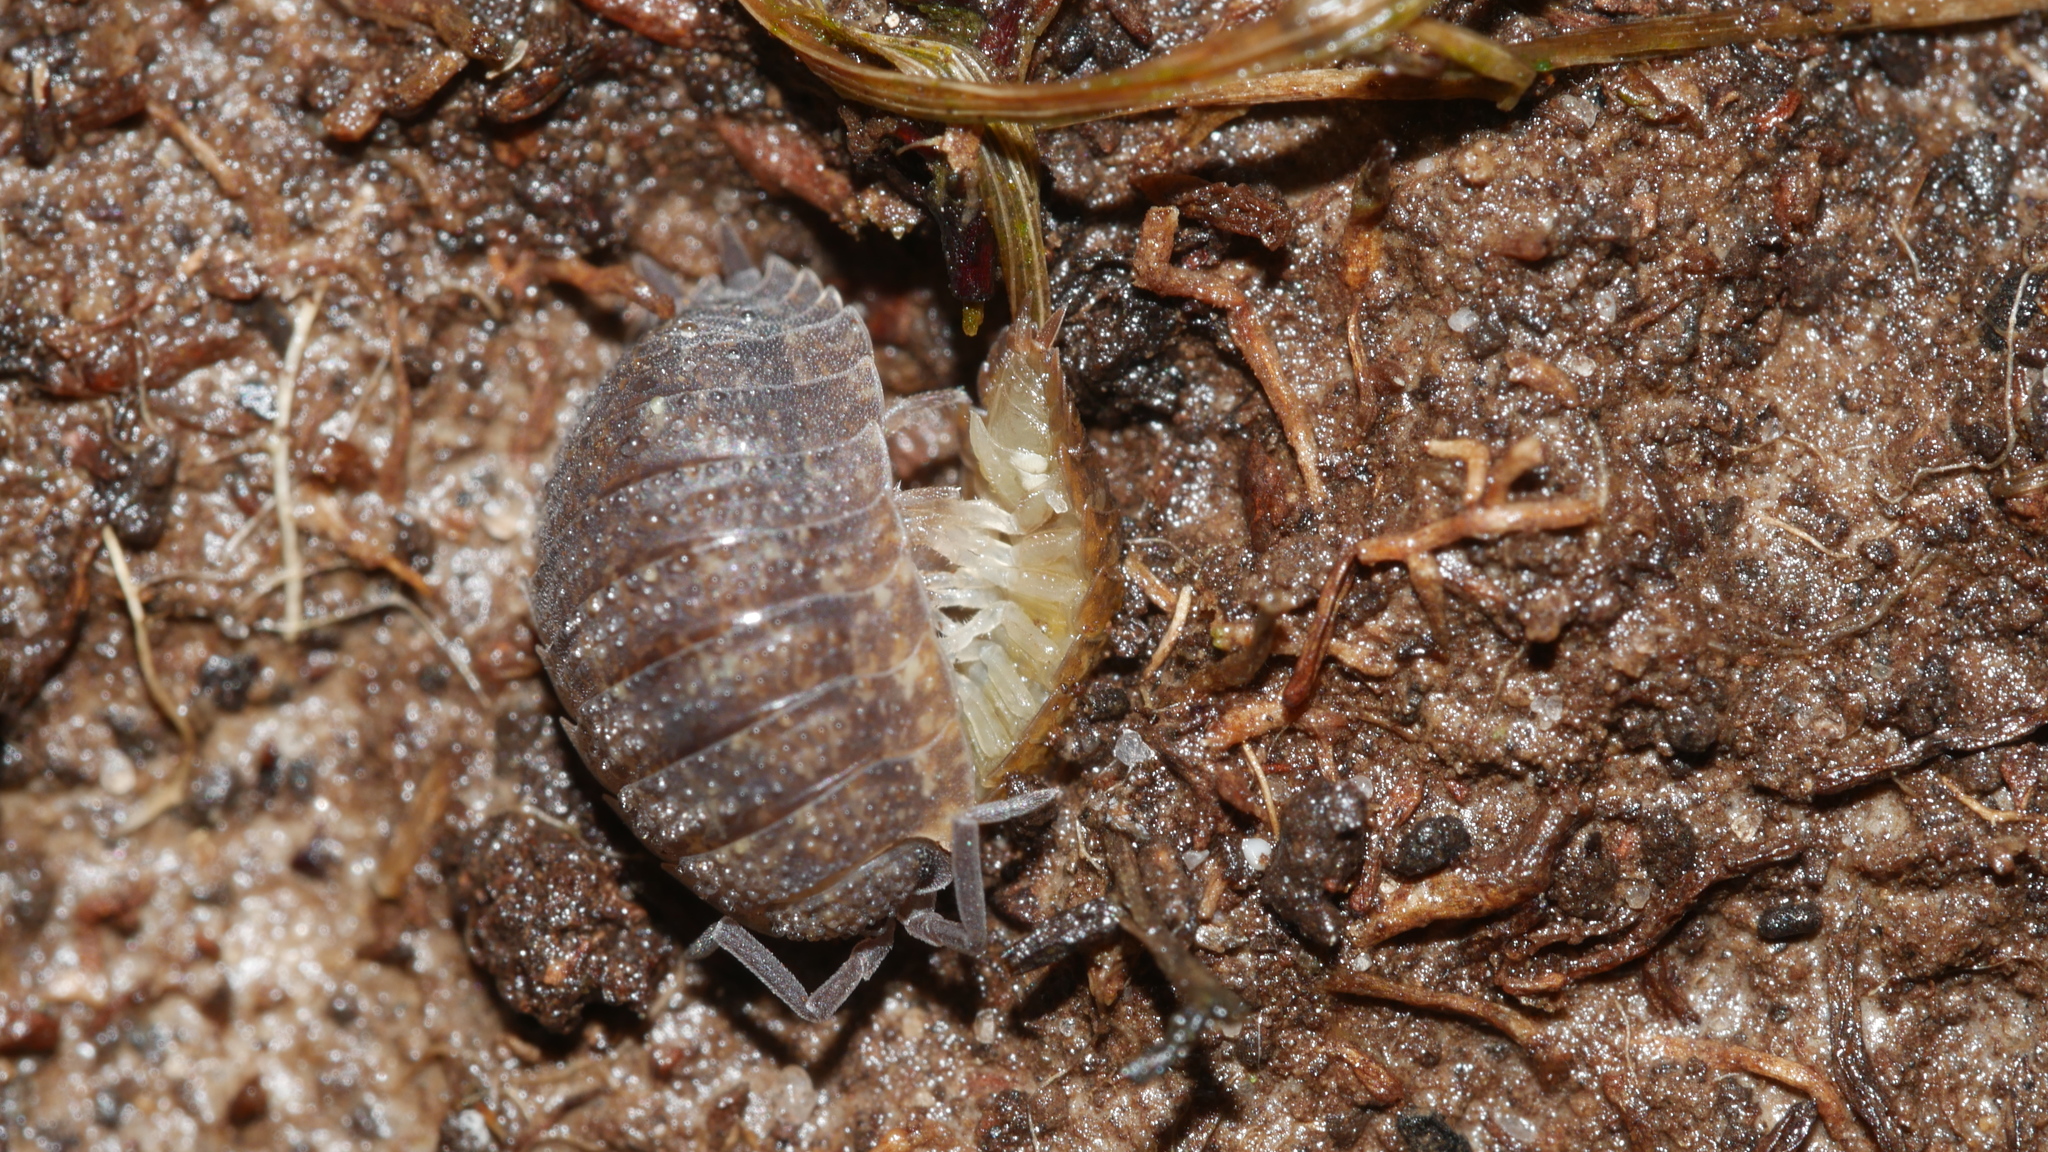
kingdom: Animalia
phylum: Arthropoda
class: Malacostraca
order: Isopoda
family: Porcellionidae
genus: Porcellio
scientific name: Porcellio scaber
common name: Common rough woodlouse
